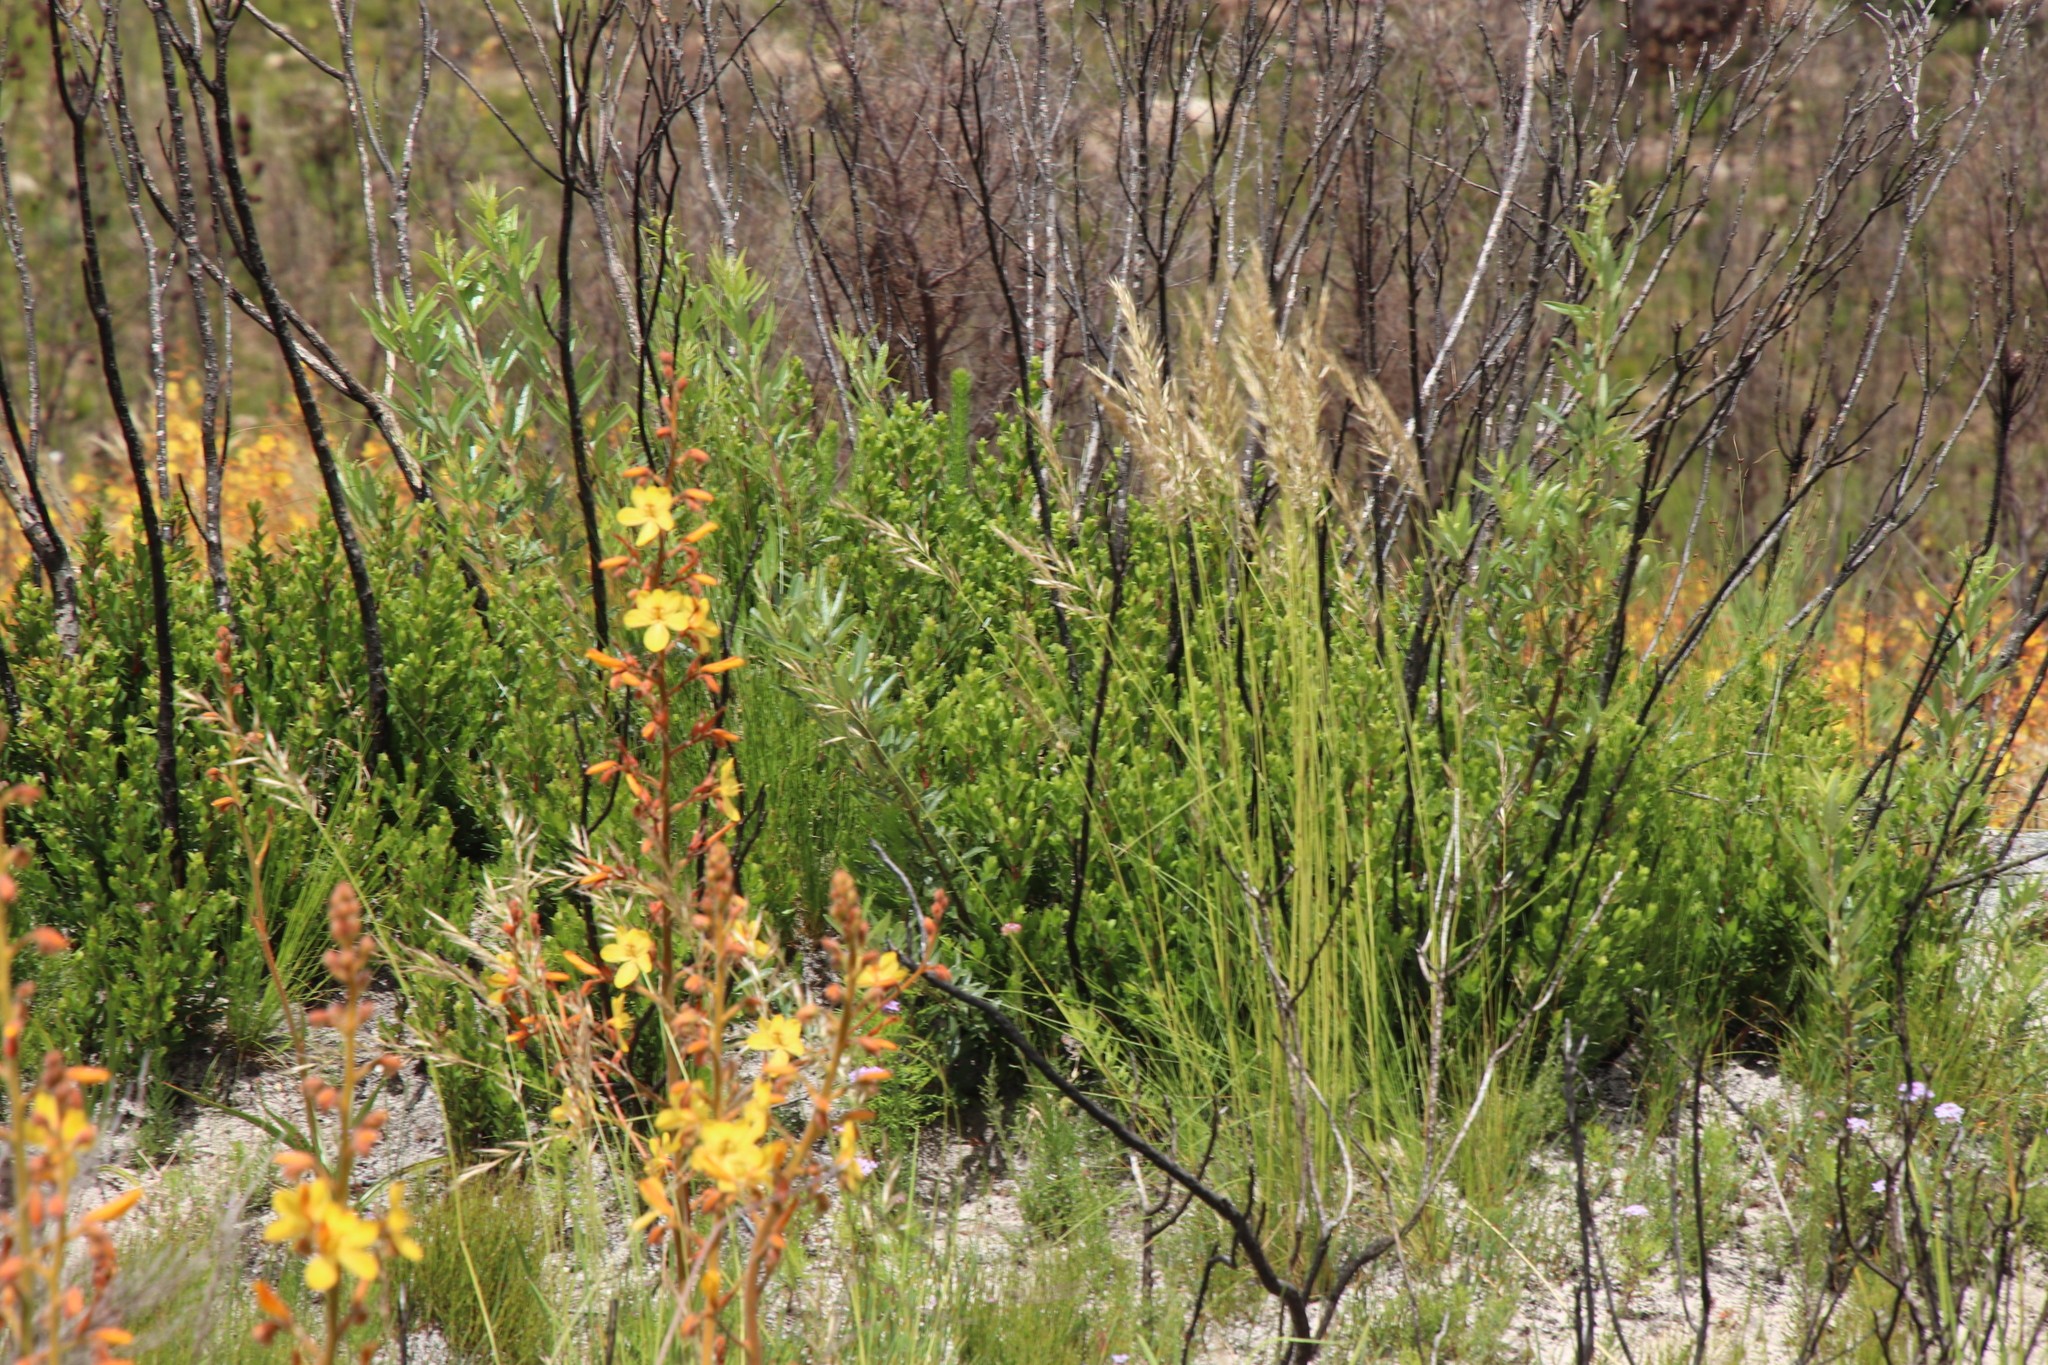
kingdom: Plantae
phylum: Tracheophyta
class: Liliopsida
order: Commelinales
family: Haemodoraceae
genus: Wachendorfia
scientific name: Wachendorfia paniculata
